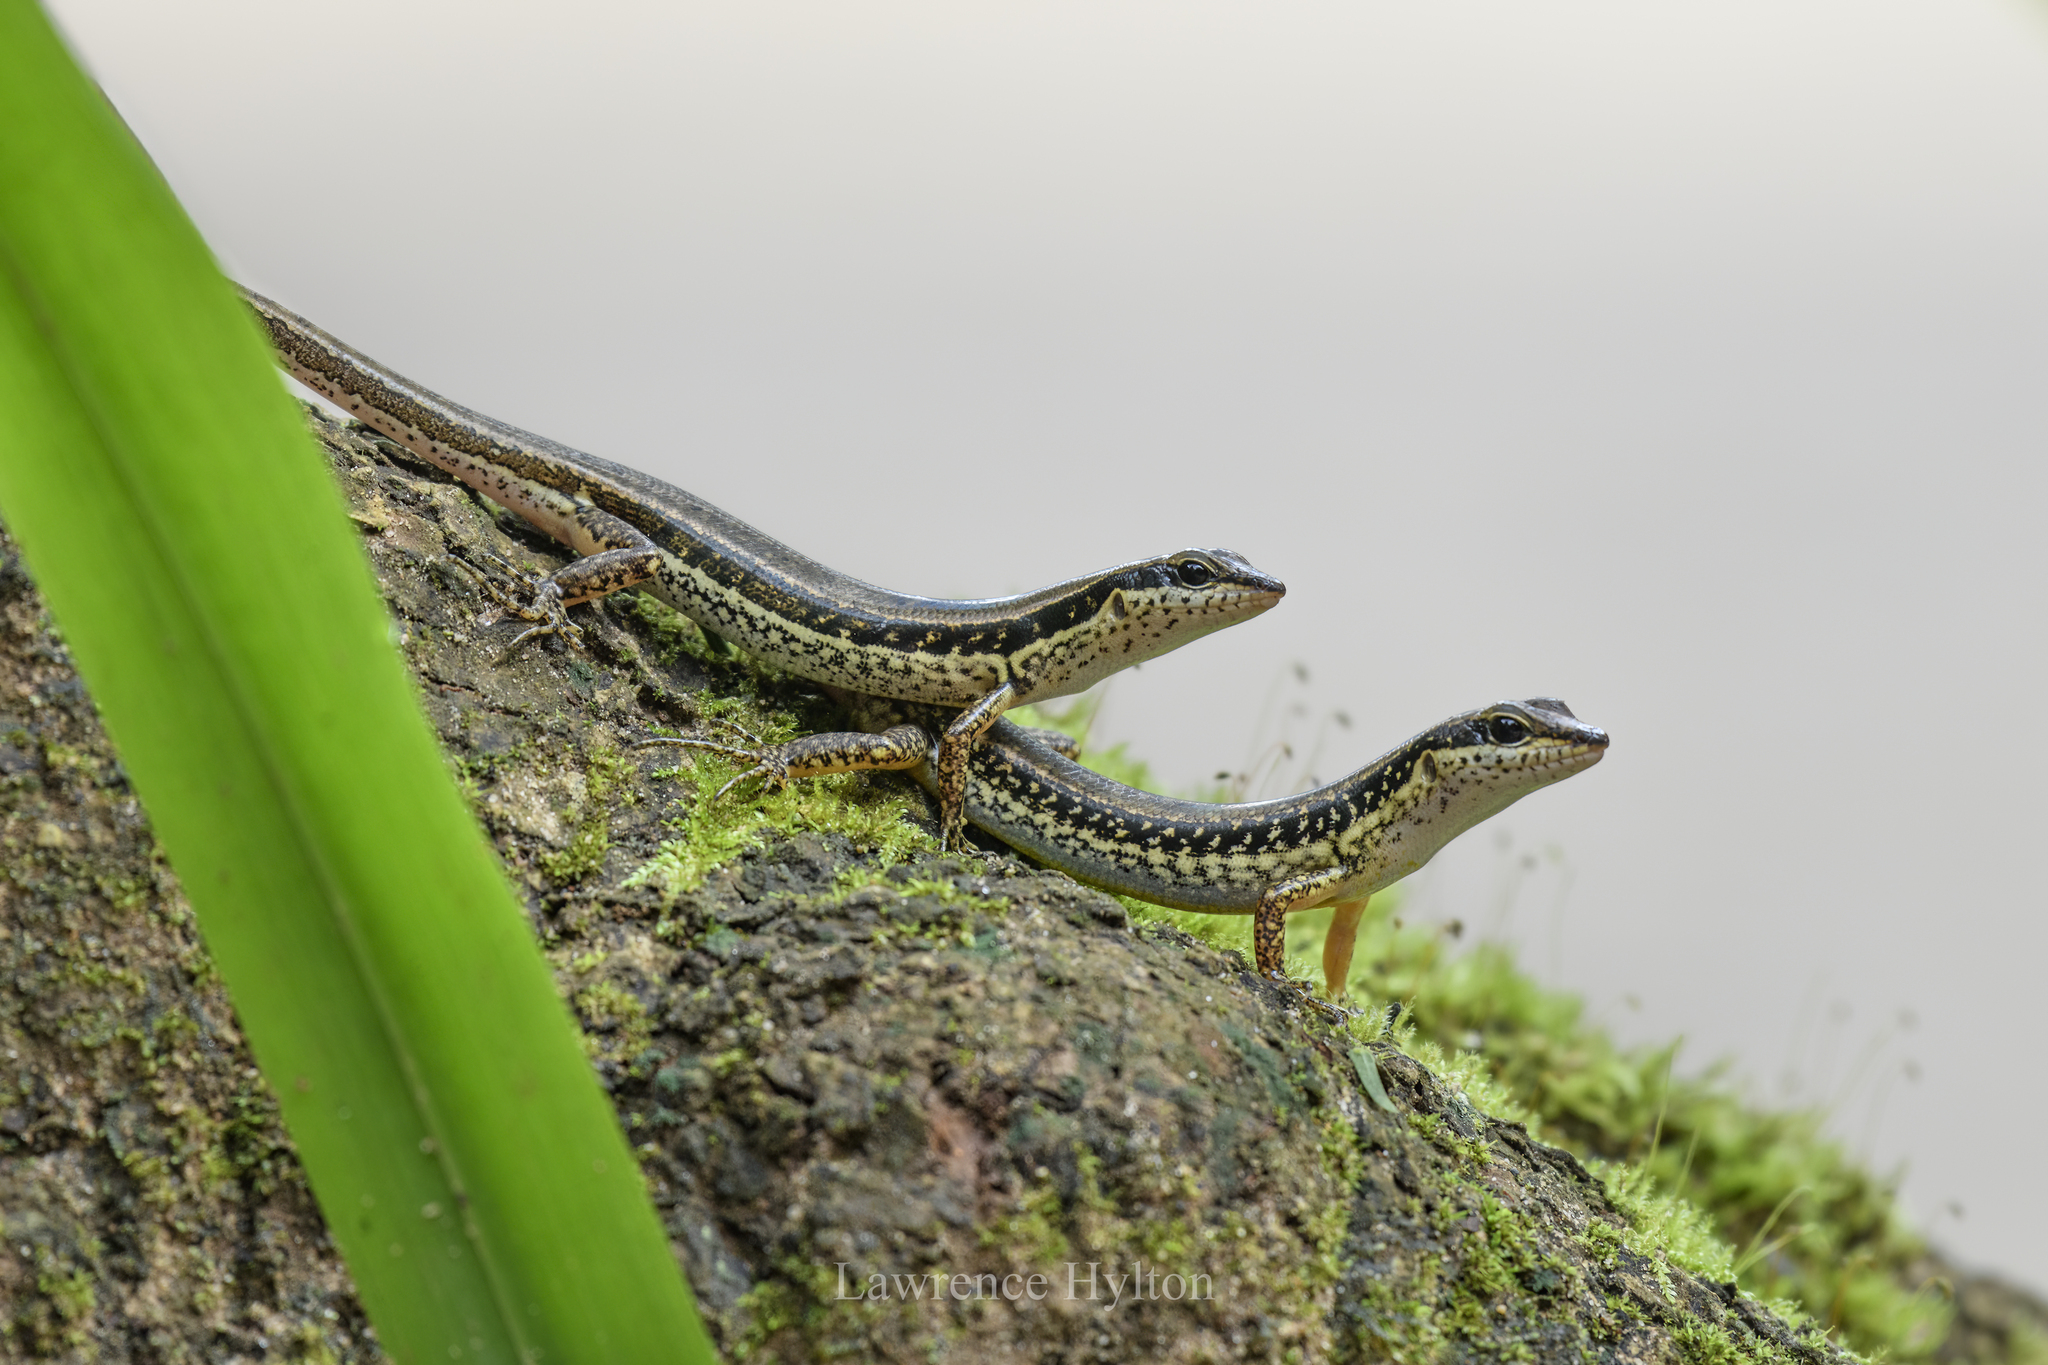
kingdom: Animalia
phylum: Chordata
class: Squamata
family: Scincidae
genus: Sphenomorphus
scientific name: Sphenomorphus maculatus
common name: Maculated forest skink
